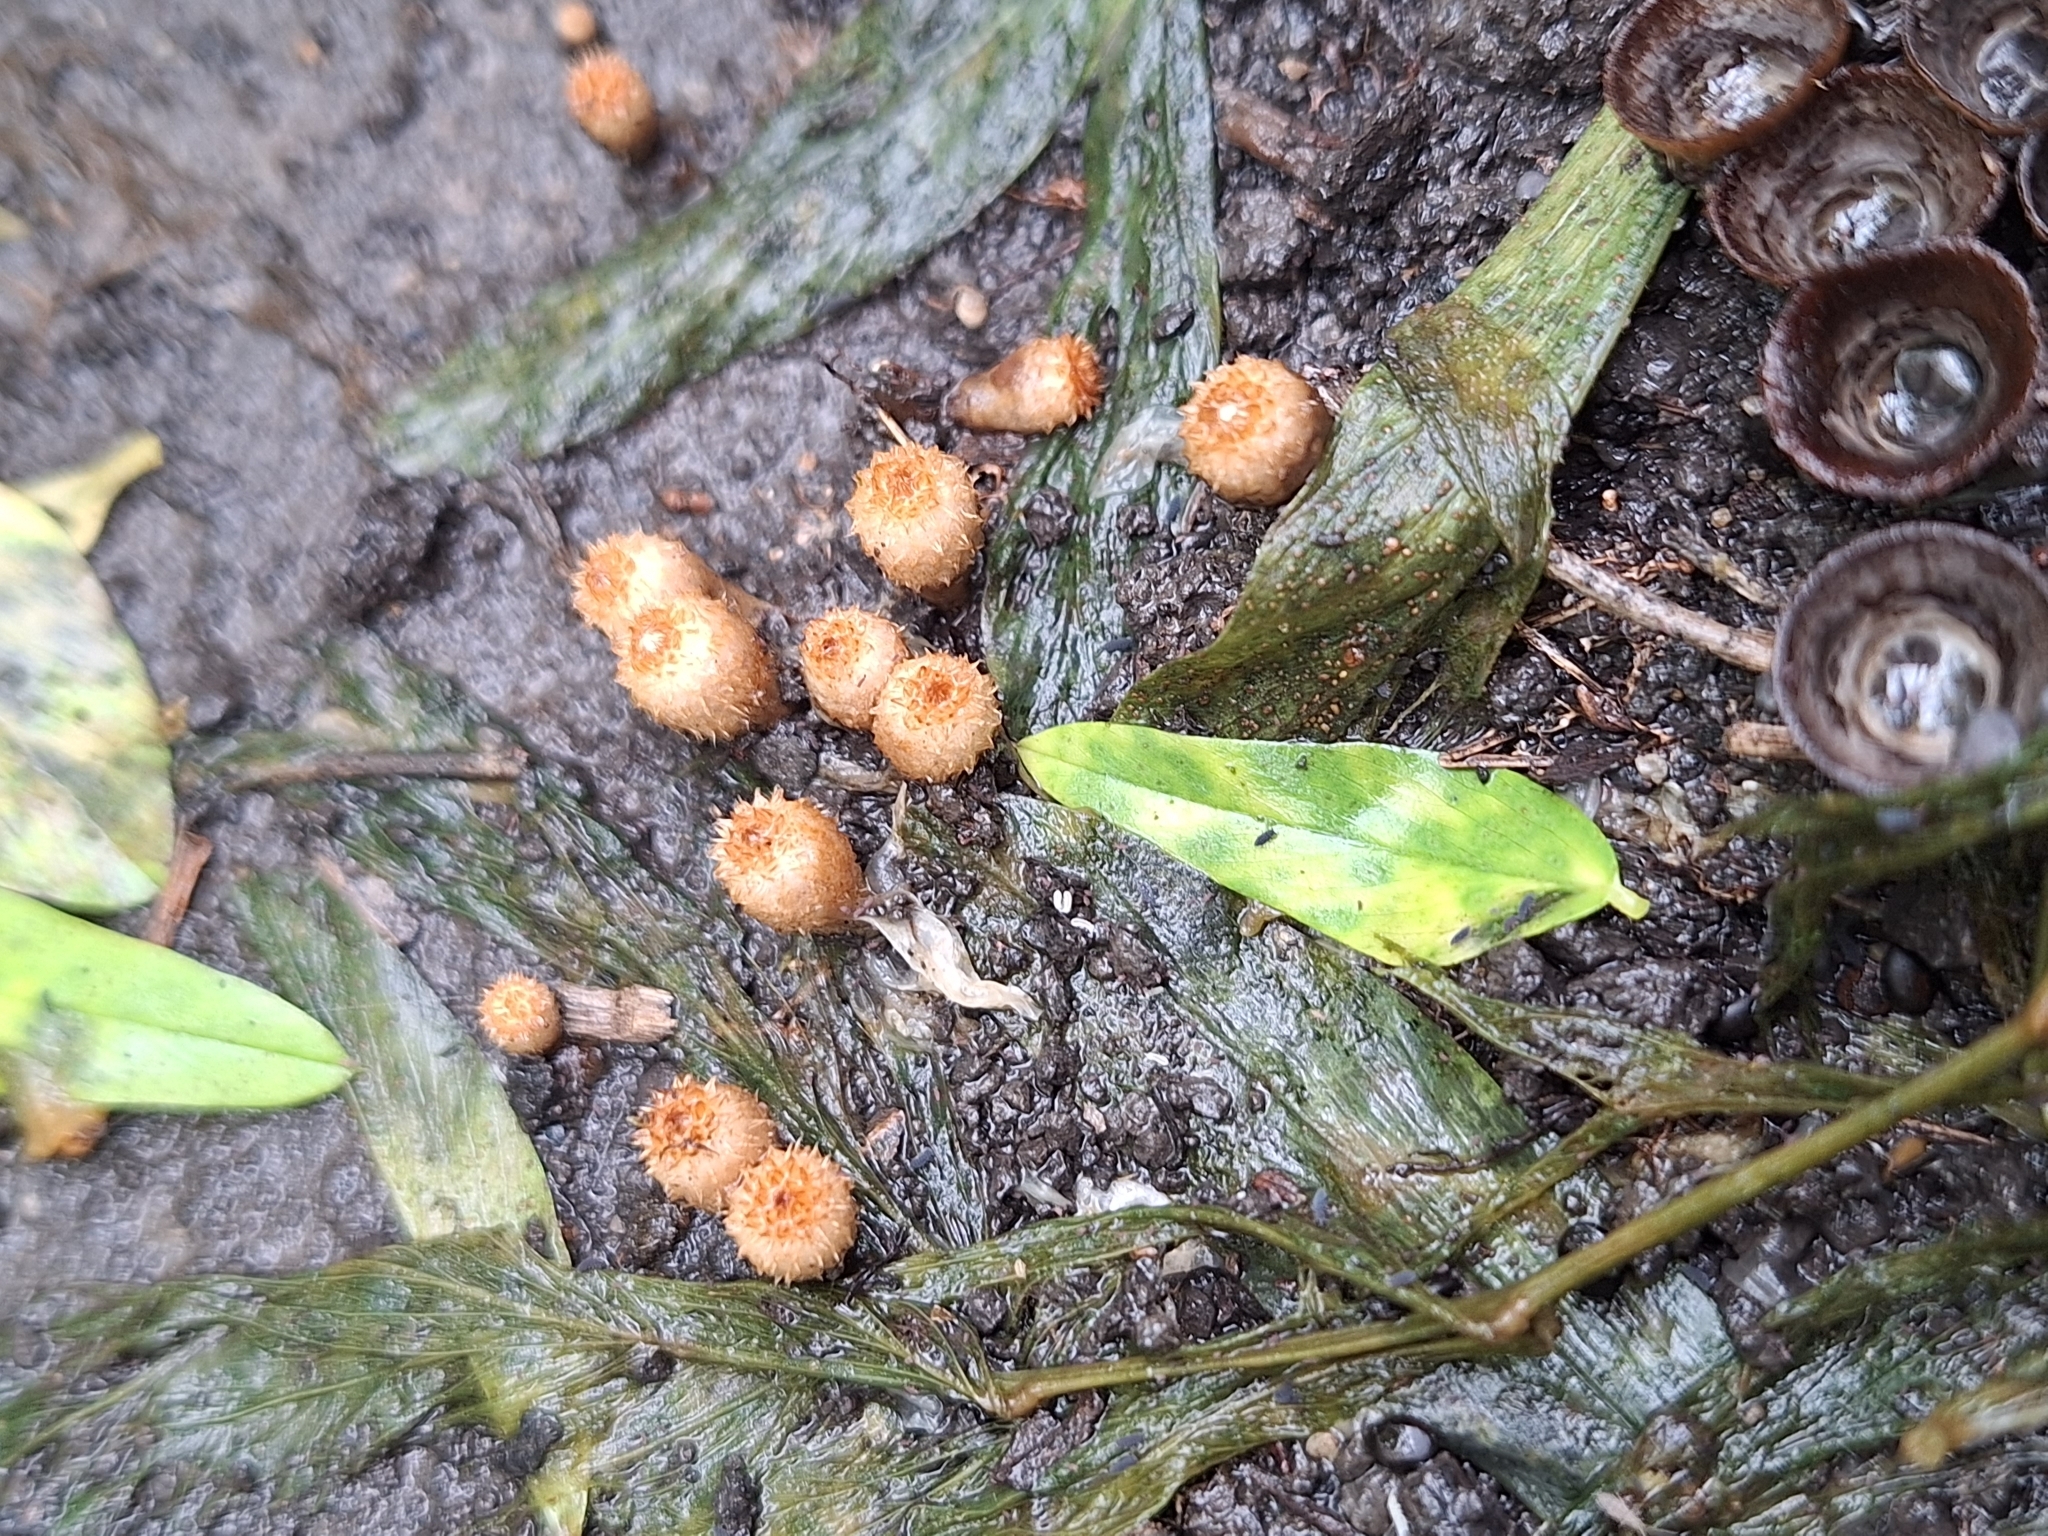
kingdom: Fungi
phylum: Basidiomycota
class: Agaricomycetes
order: Agaricales
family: Agaricaceae
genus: Cyathus
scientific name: Cyathus stercoreus
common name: Dung bird's nest
